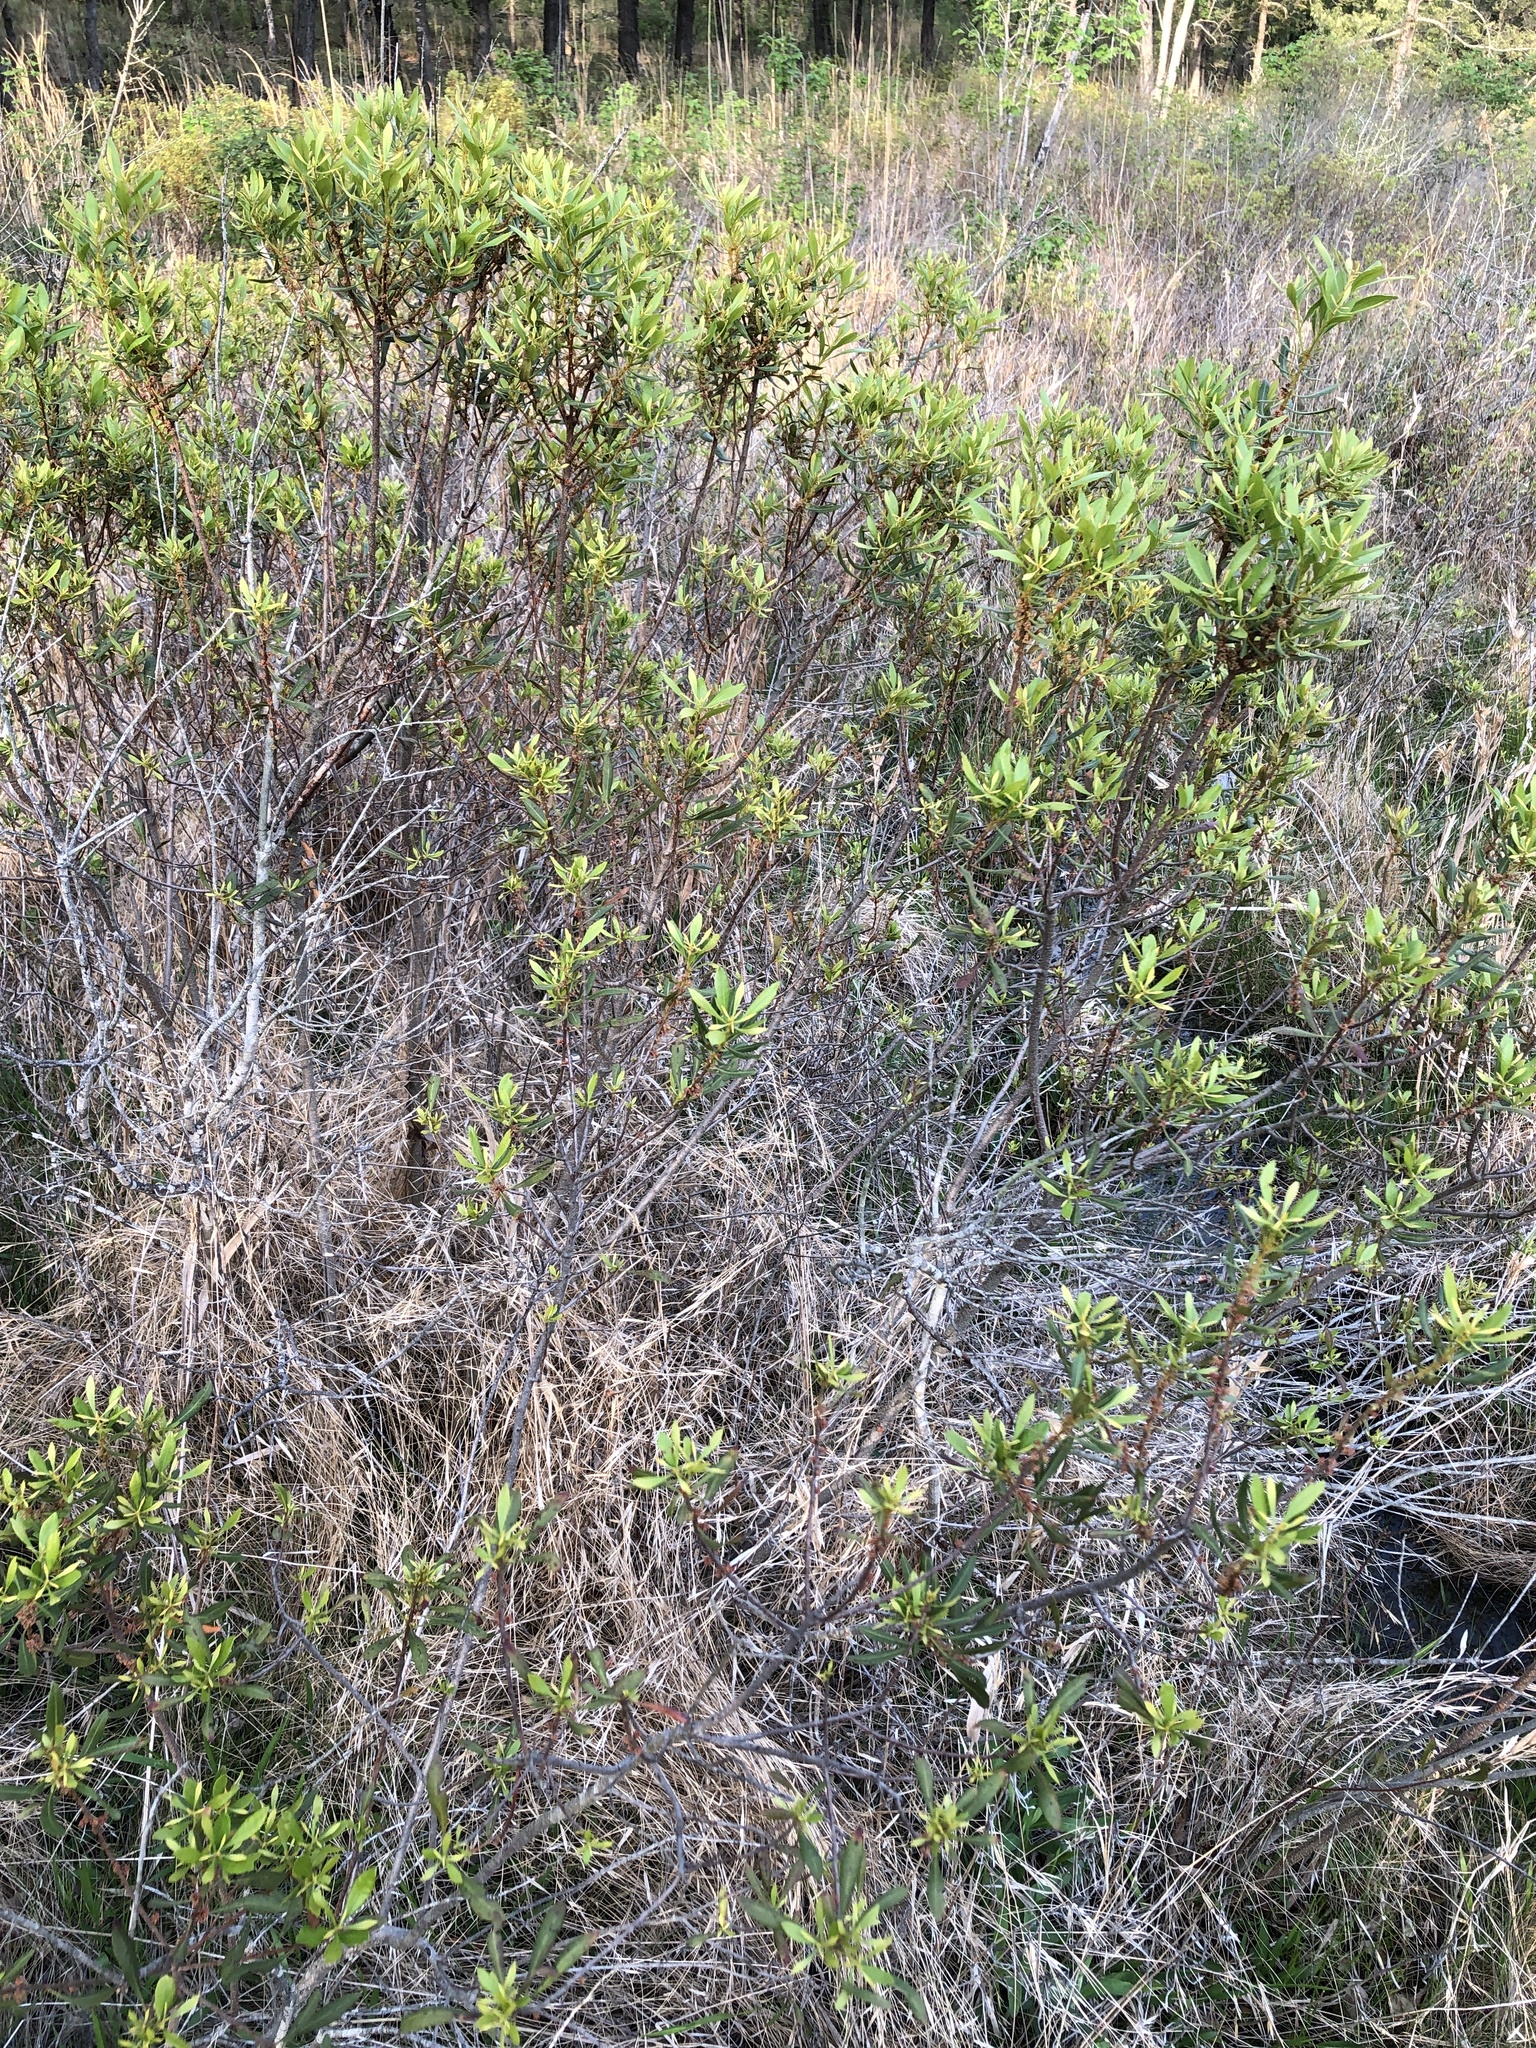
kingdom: Plantae
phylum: Tracheophyta
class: Magnoliopsida
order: Fagales
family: Myricaceae
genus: Morella
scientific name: Morella cerifera
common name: Wax myrtle
